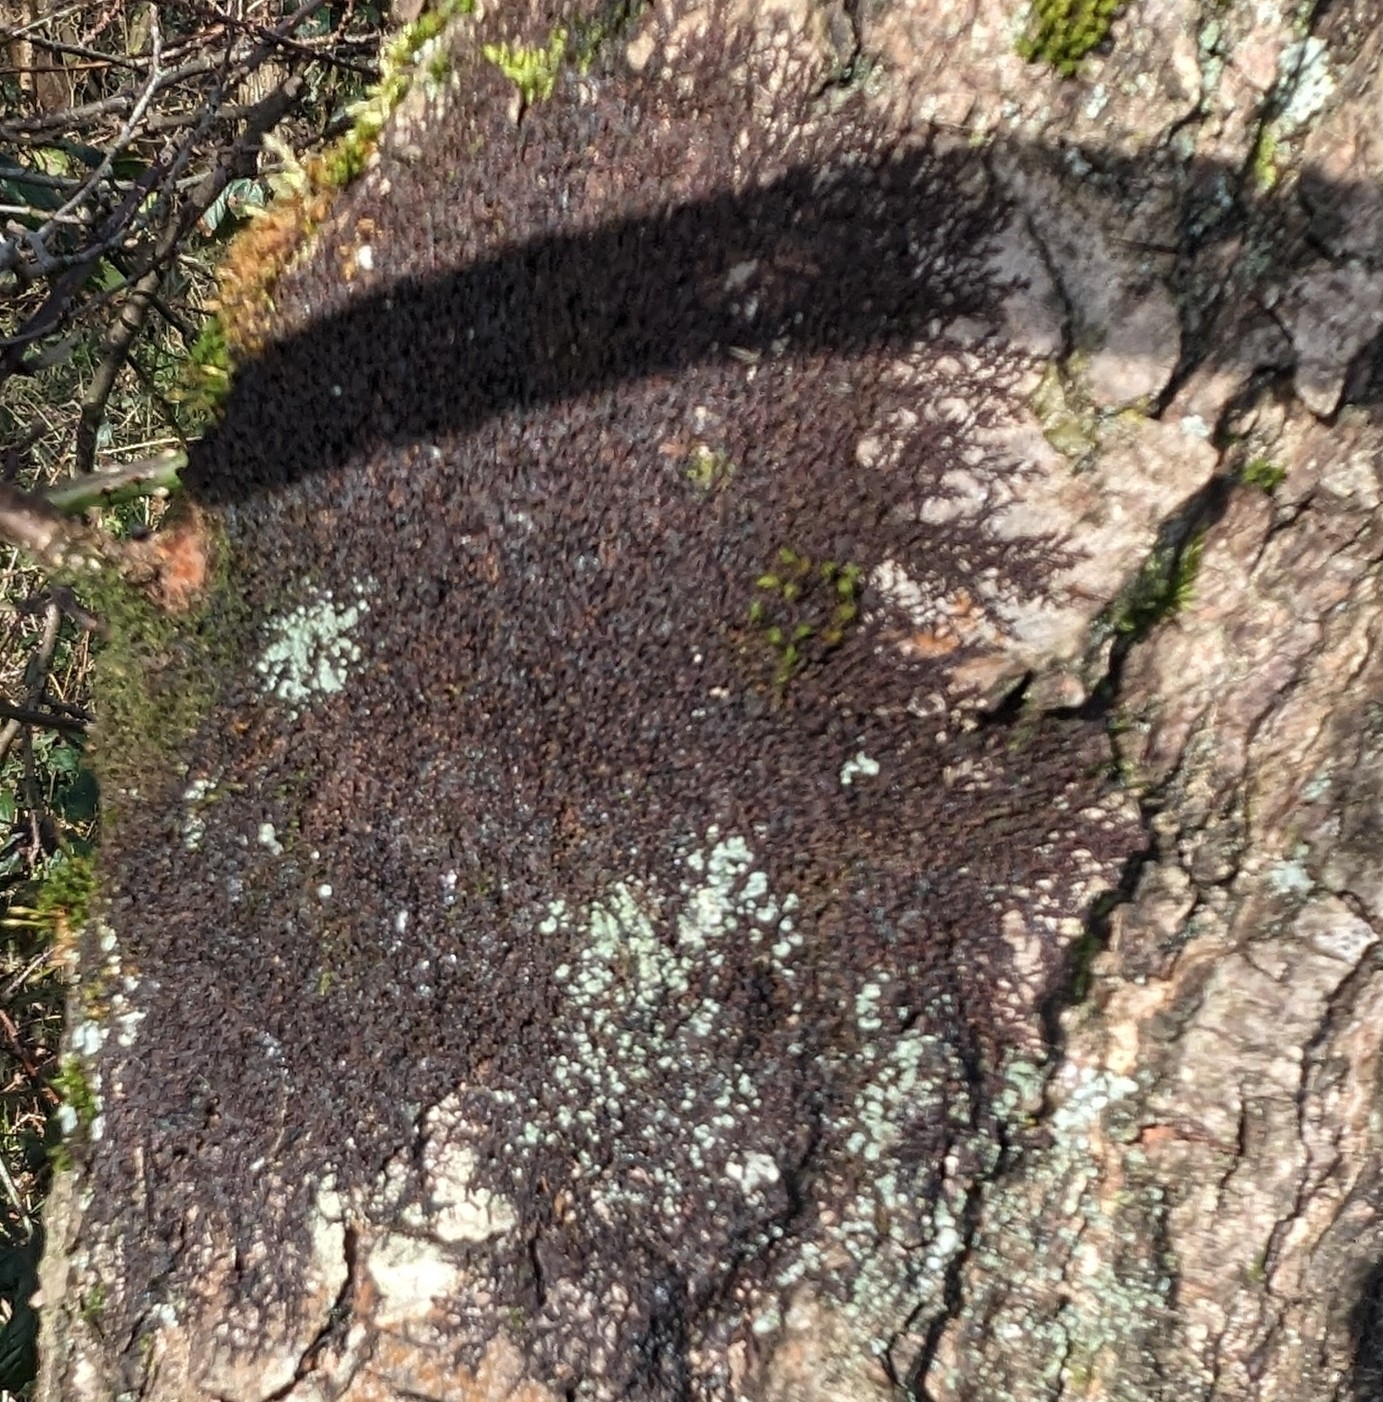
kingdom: Plantae
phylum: Marchantiophyta
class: Jungermanniopsida
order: Porellales
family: Frullaniaceae
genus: Frullania
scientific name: Frullania dilatata
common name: Dilated scalewort
